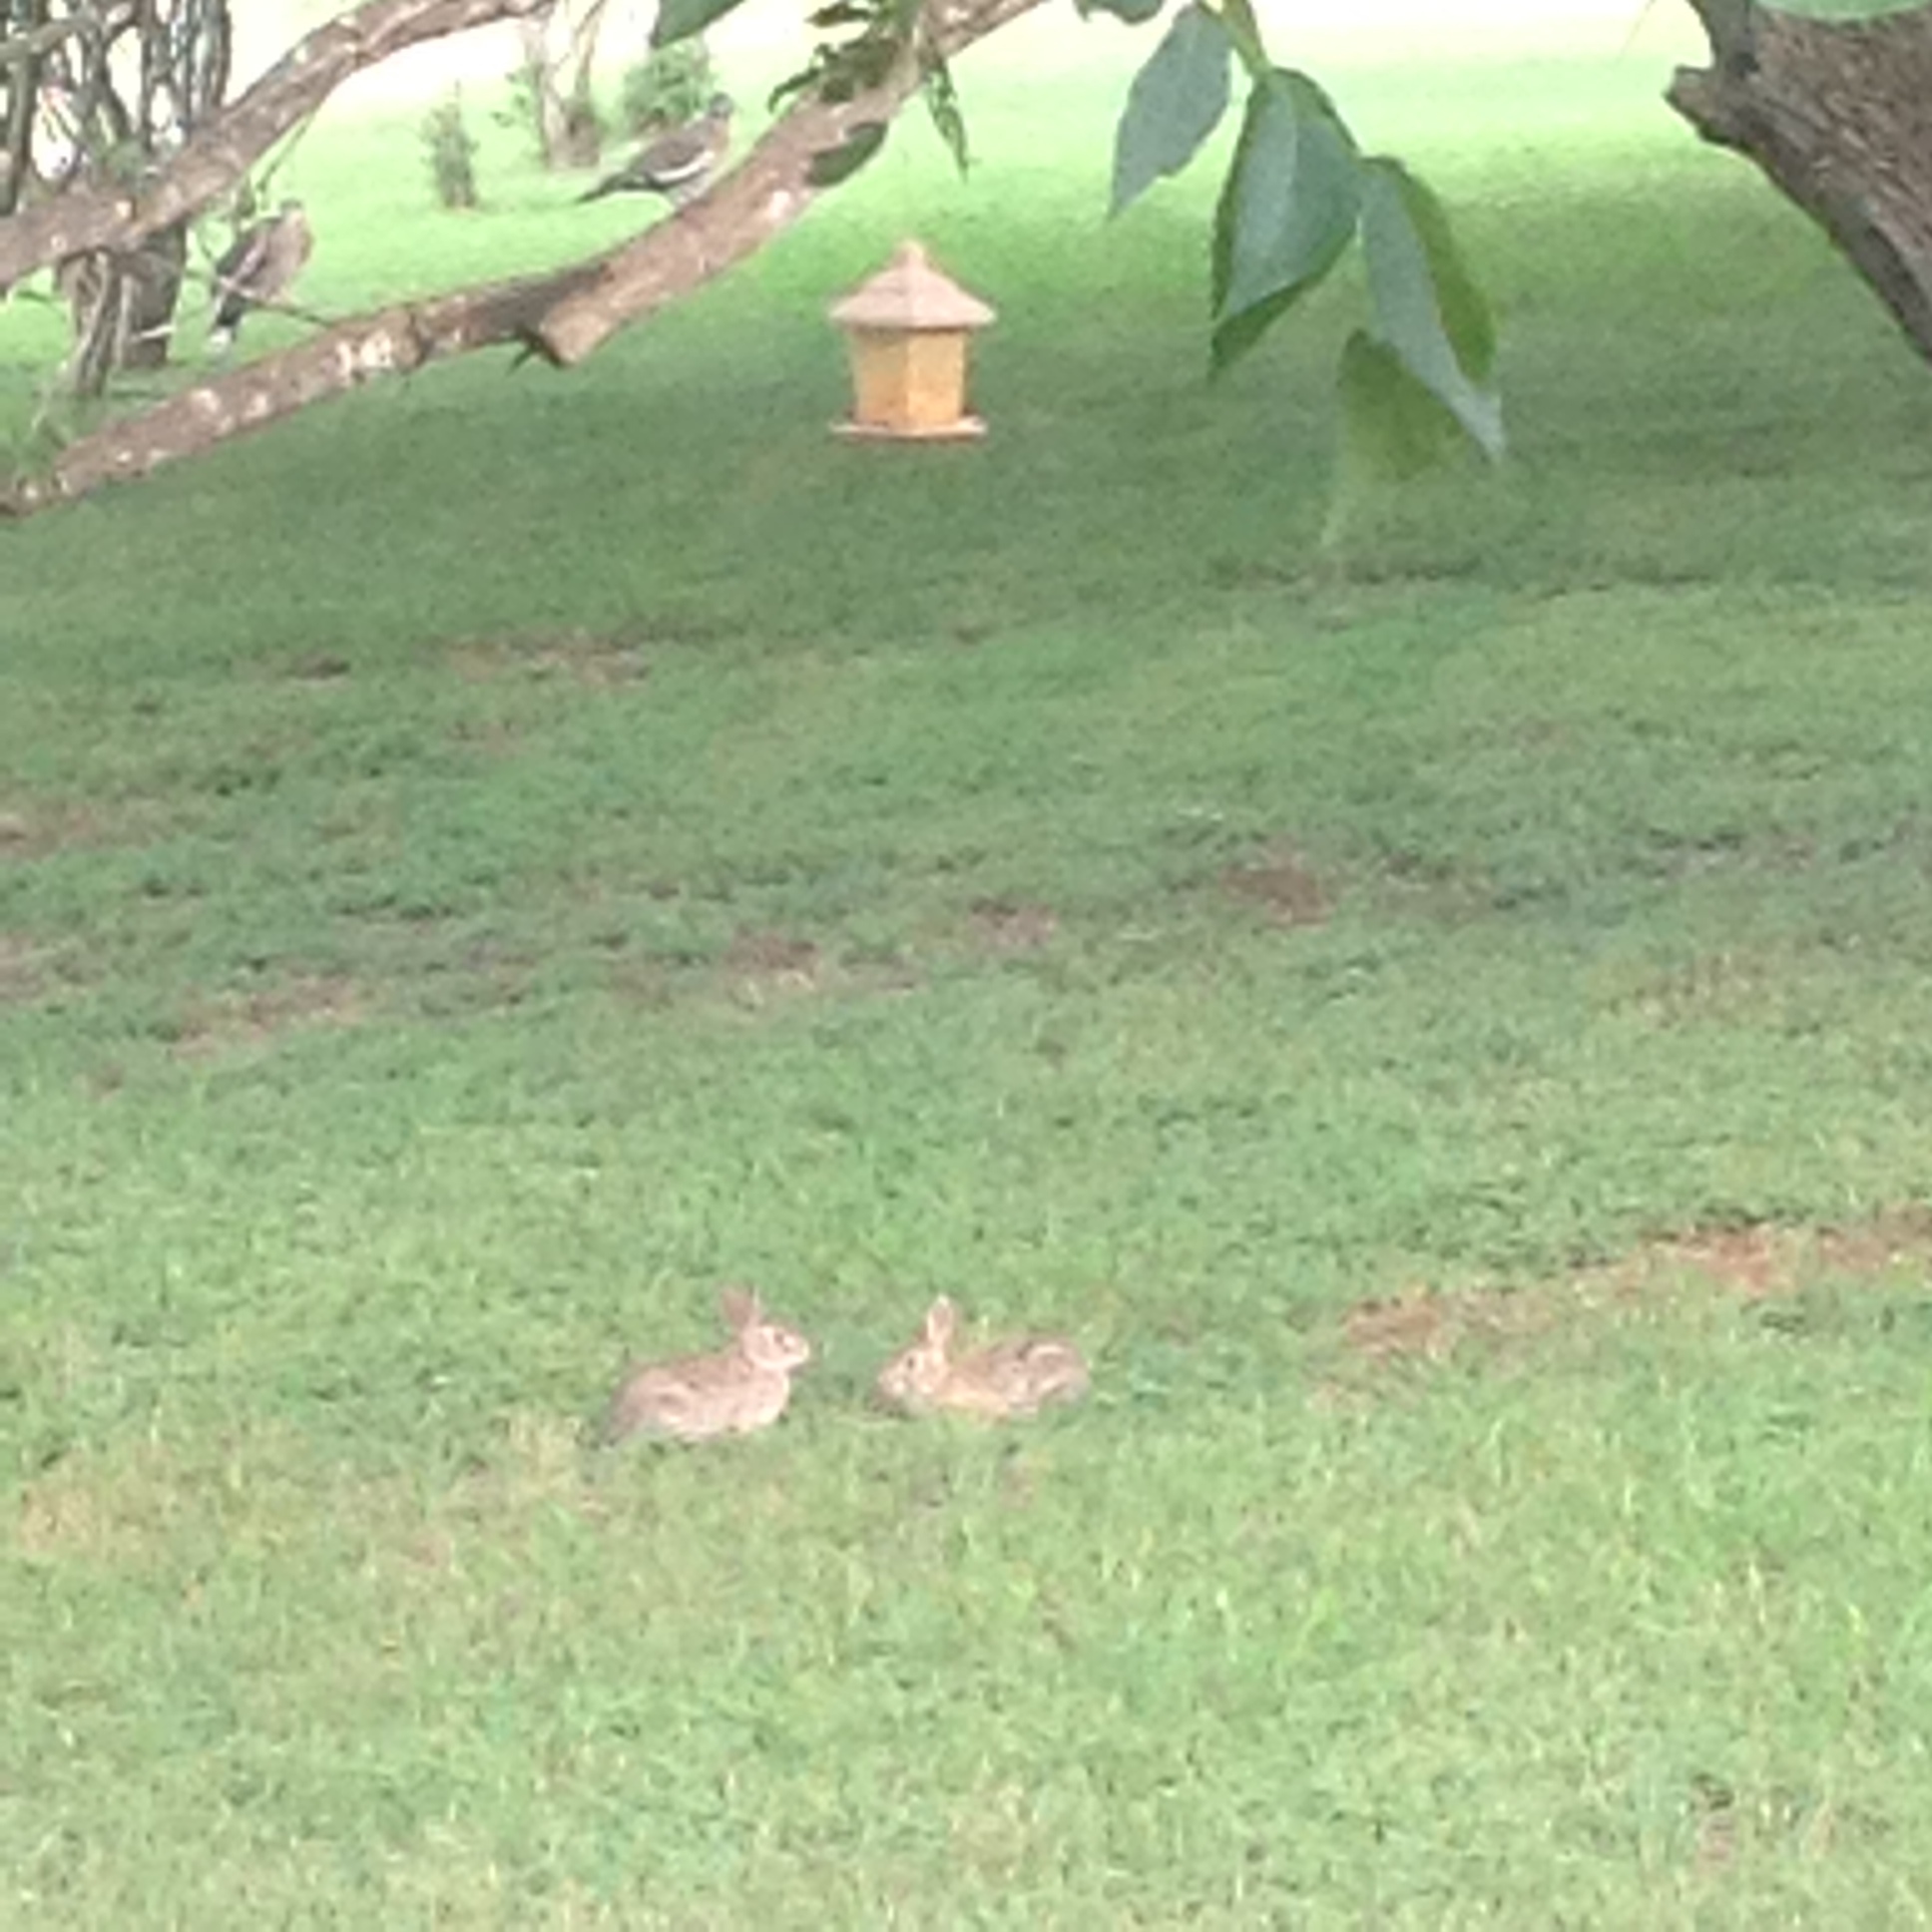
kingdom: Animalia
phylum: Chordata
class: Mammalia
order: Lagomorpha
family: Leporidae
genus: Sylvilagus
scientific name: Sylvilagus floridanus
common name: Eastern cottontail
